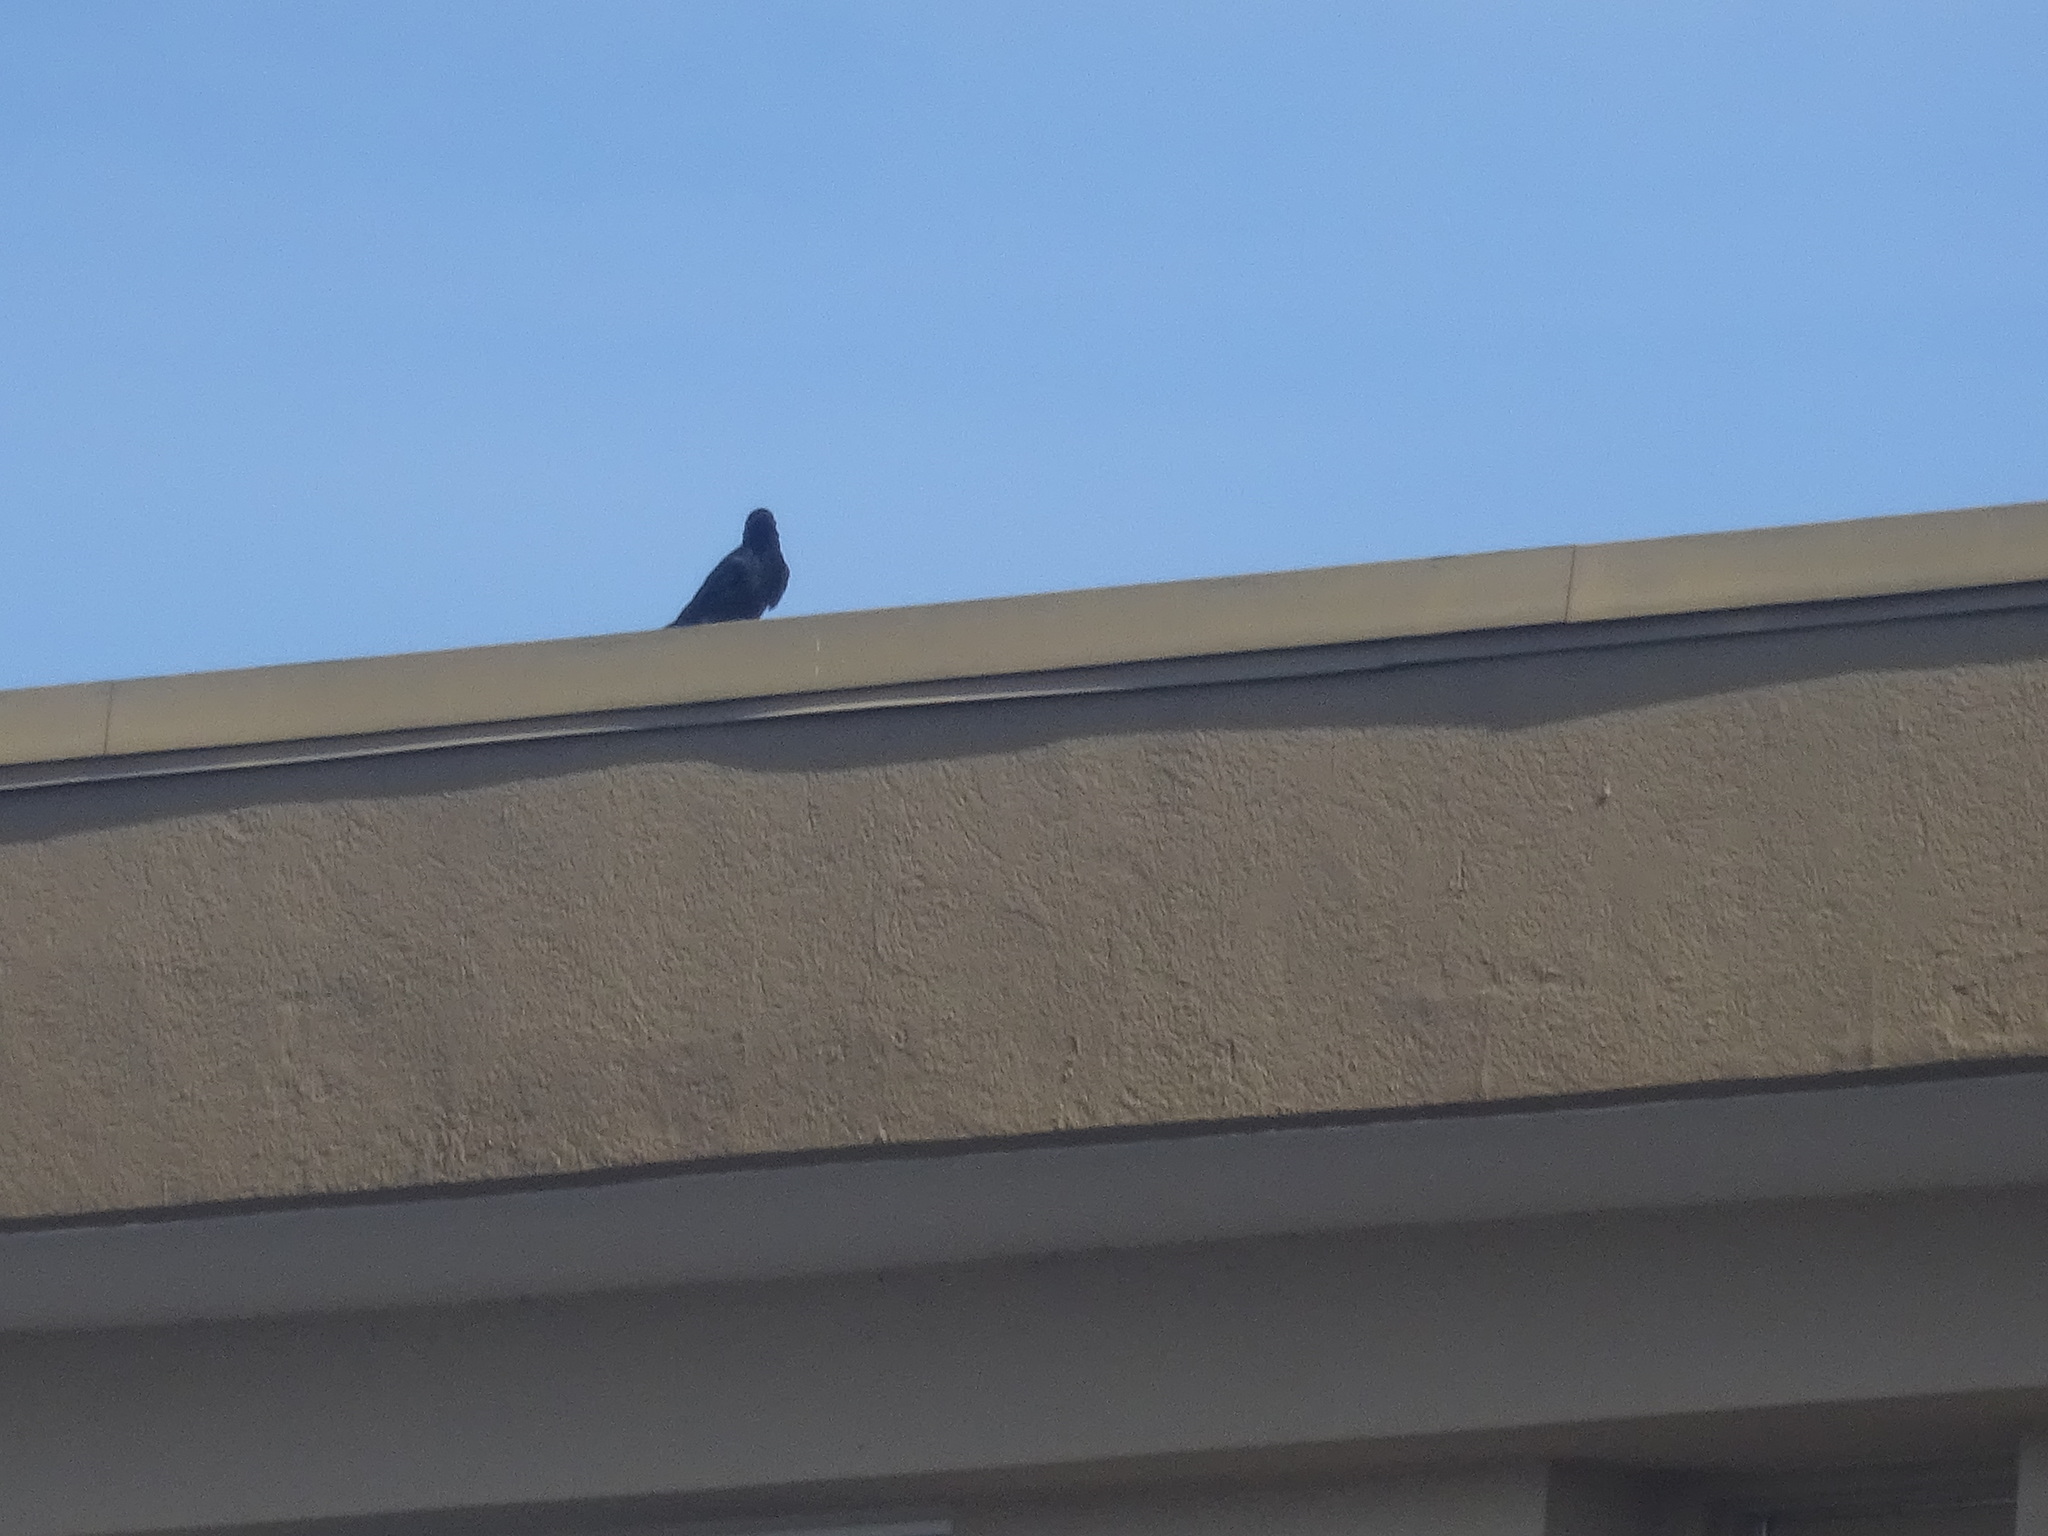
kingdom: Animalia
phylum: Chordata
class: Aves
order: Passeriformes
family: Corvidae
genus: Corvus
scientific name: Corvus ossifragus
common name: Fish crow
